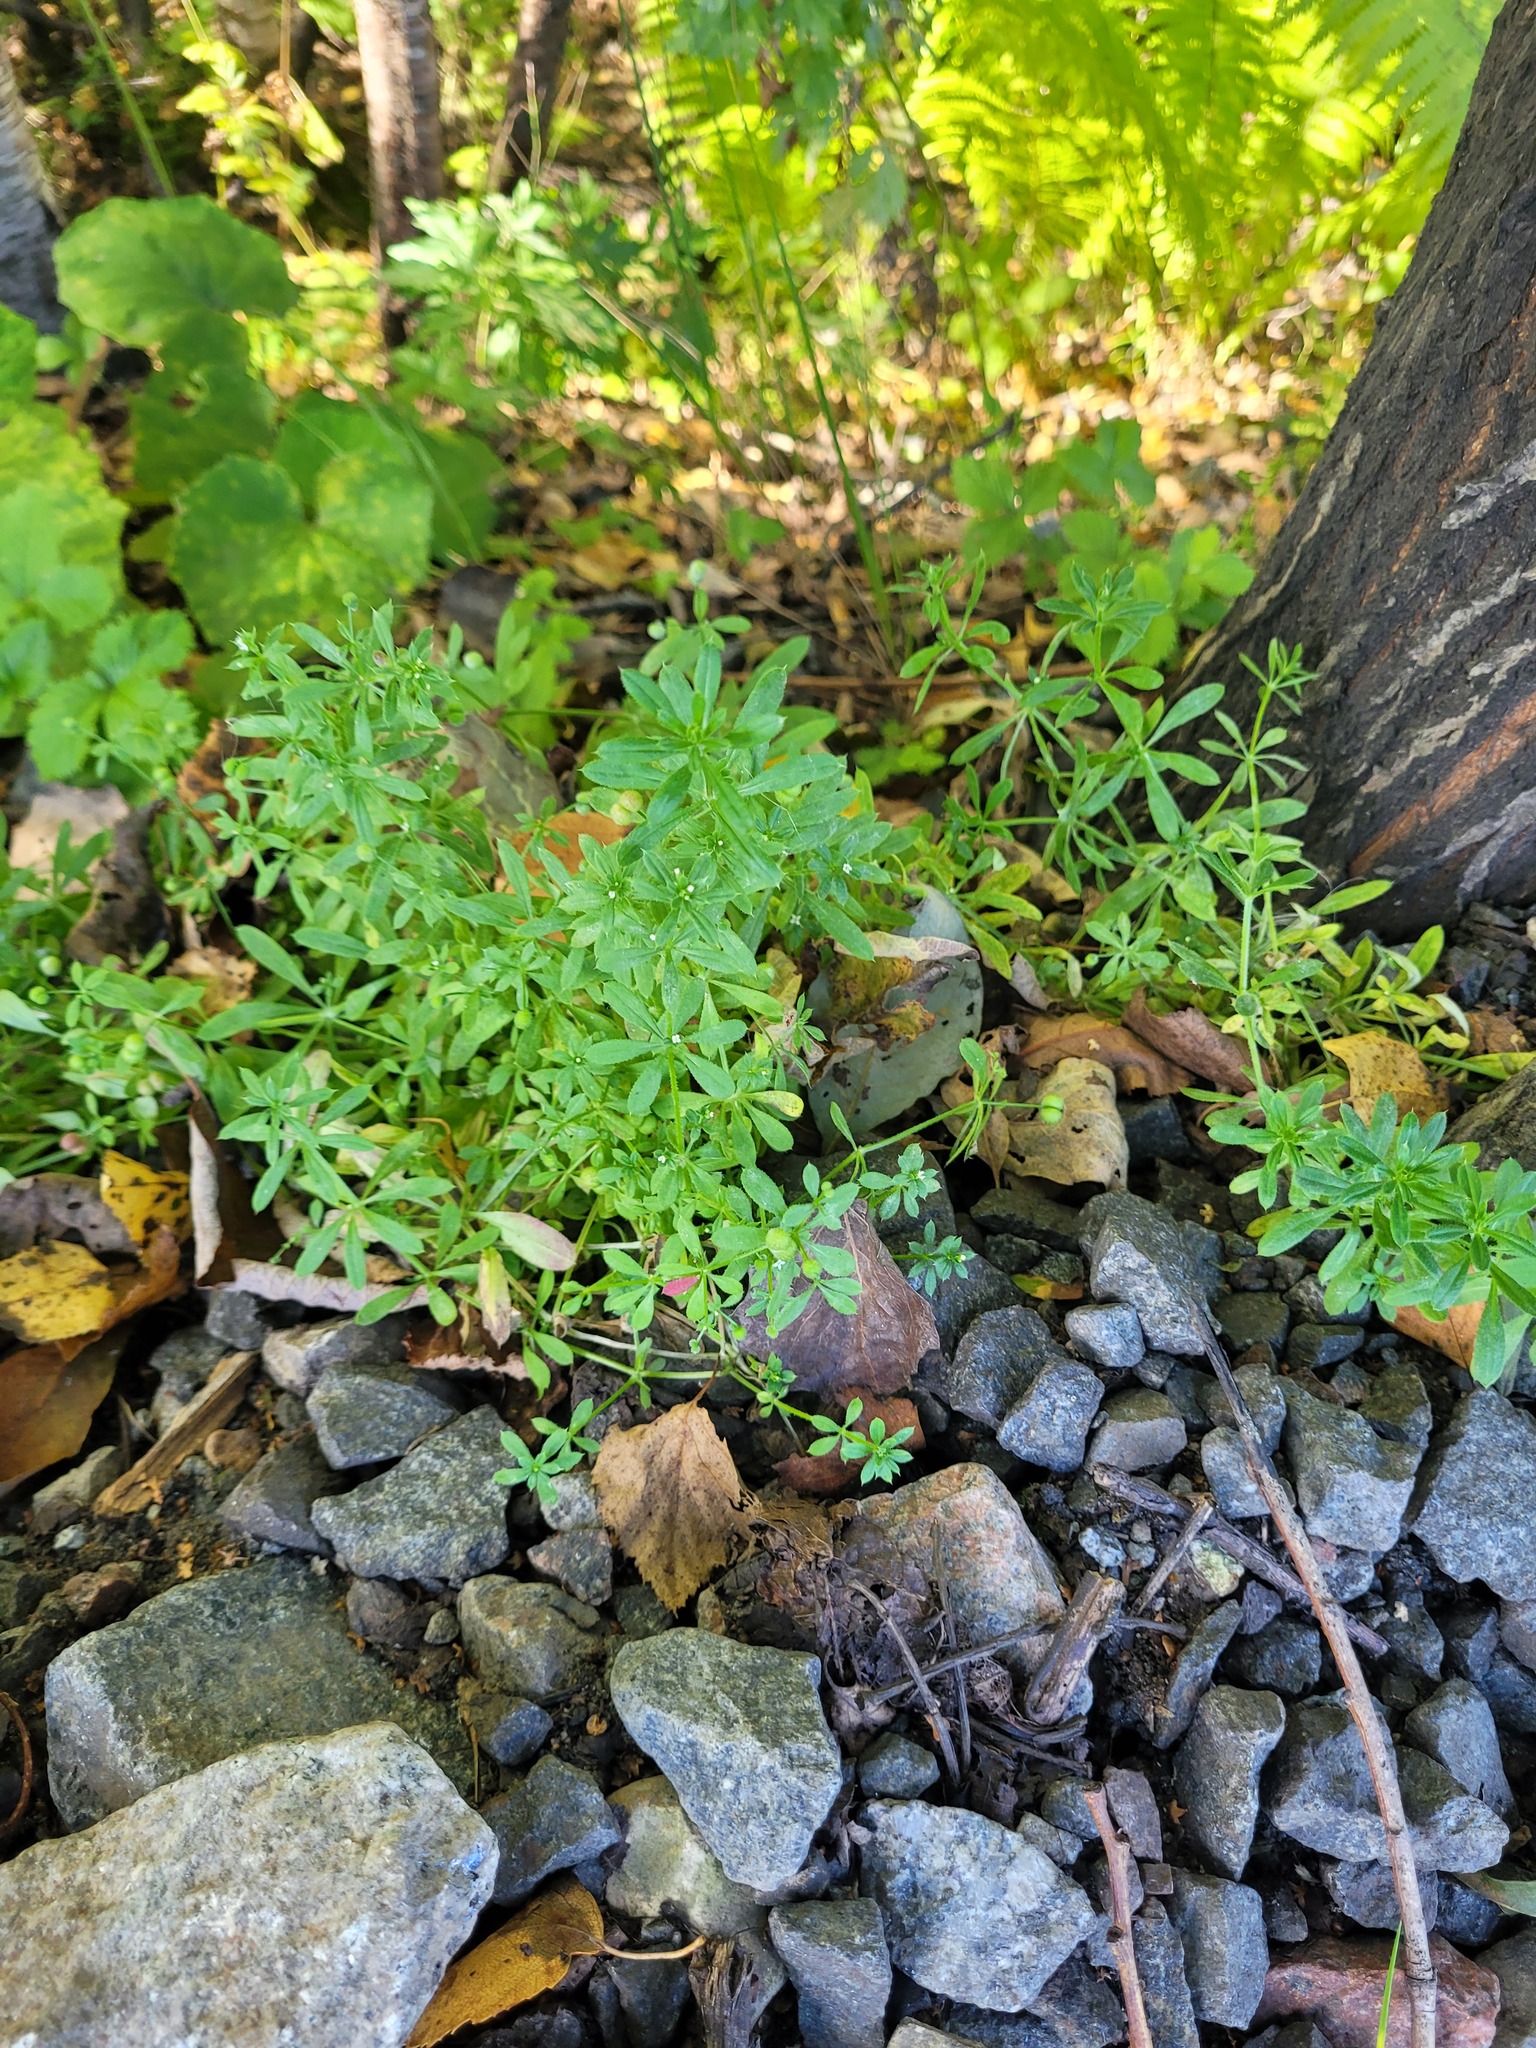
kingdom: Plantae
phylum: Tracheophyta
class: Magnoliopsida
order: Gentianales
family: Rubiaceae
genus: Galium
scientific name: Galium aparine
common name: Cleavers
